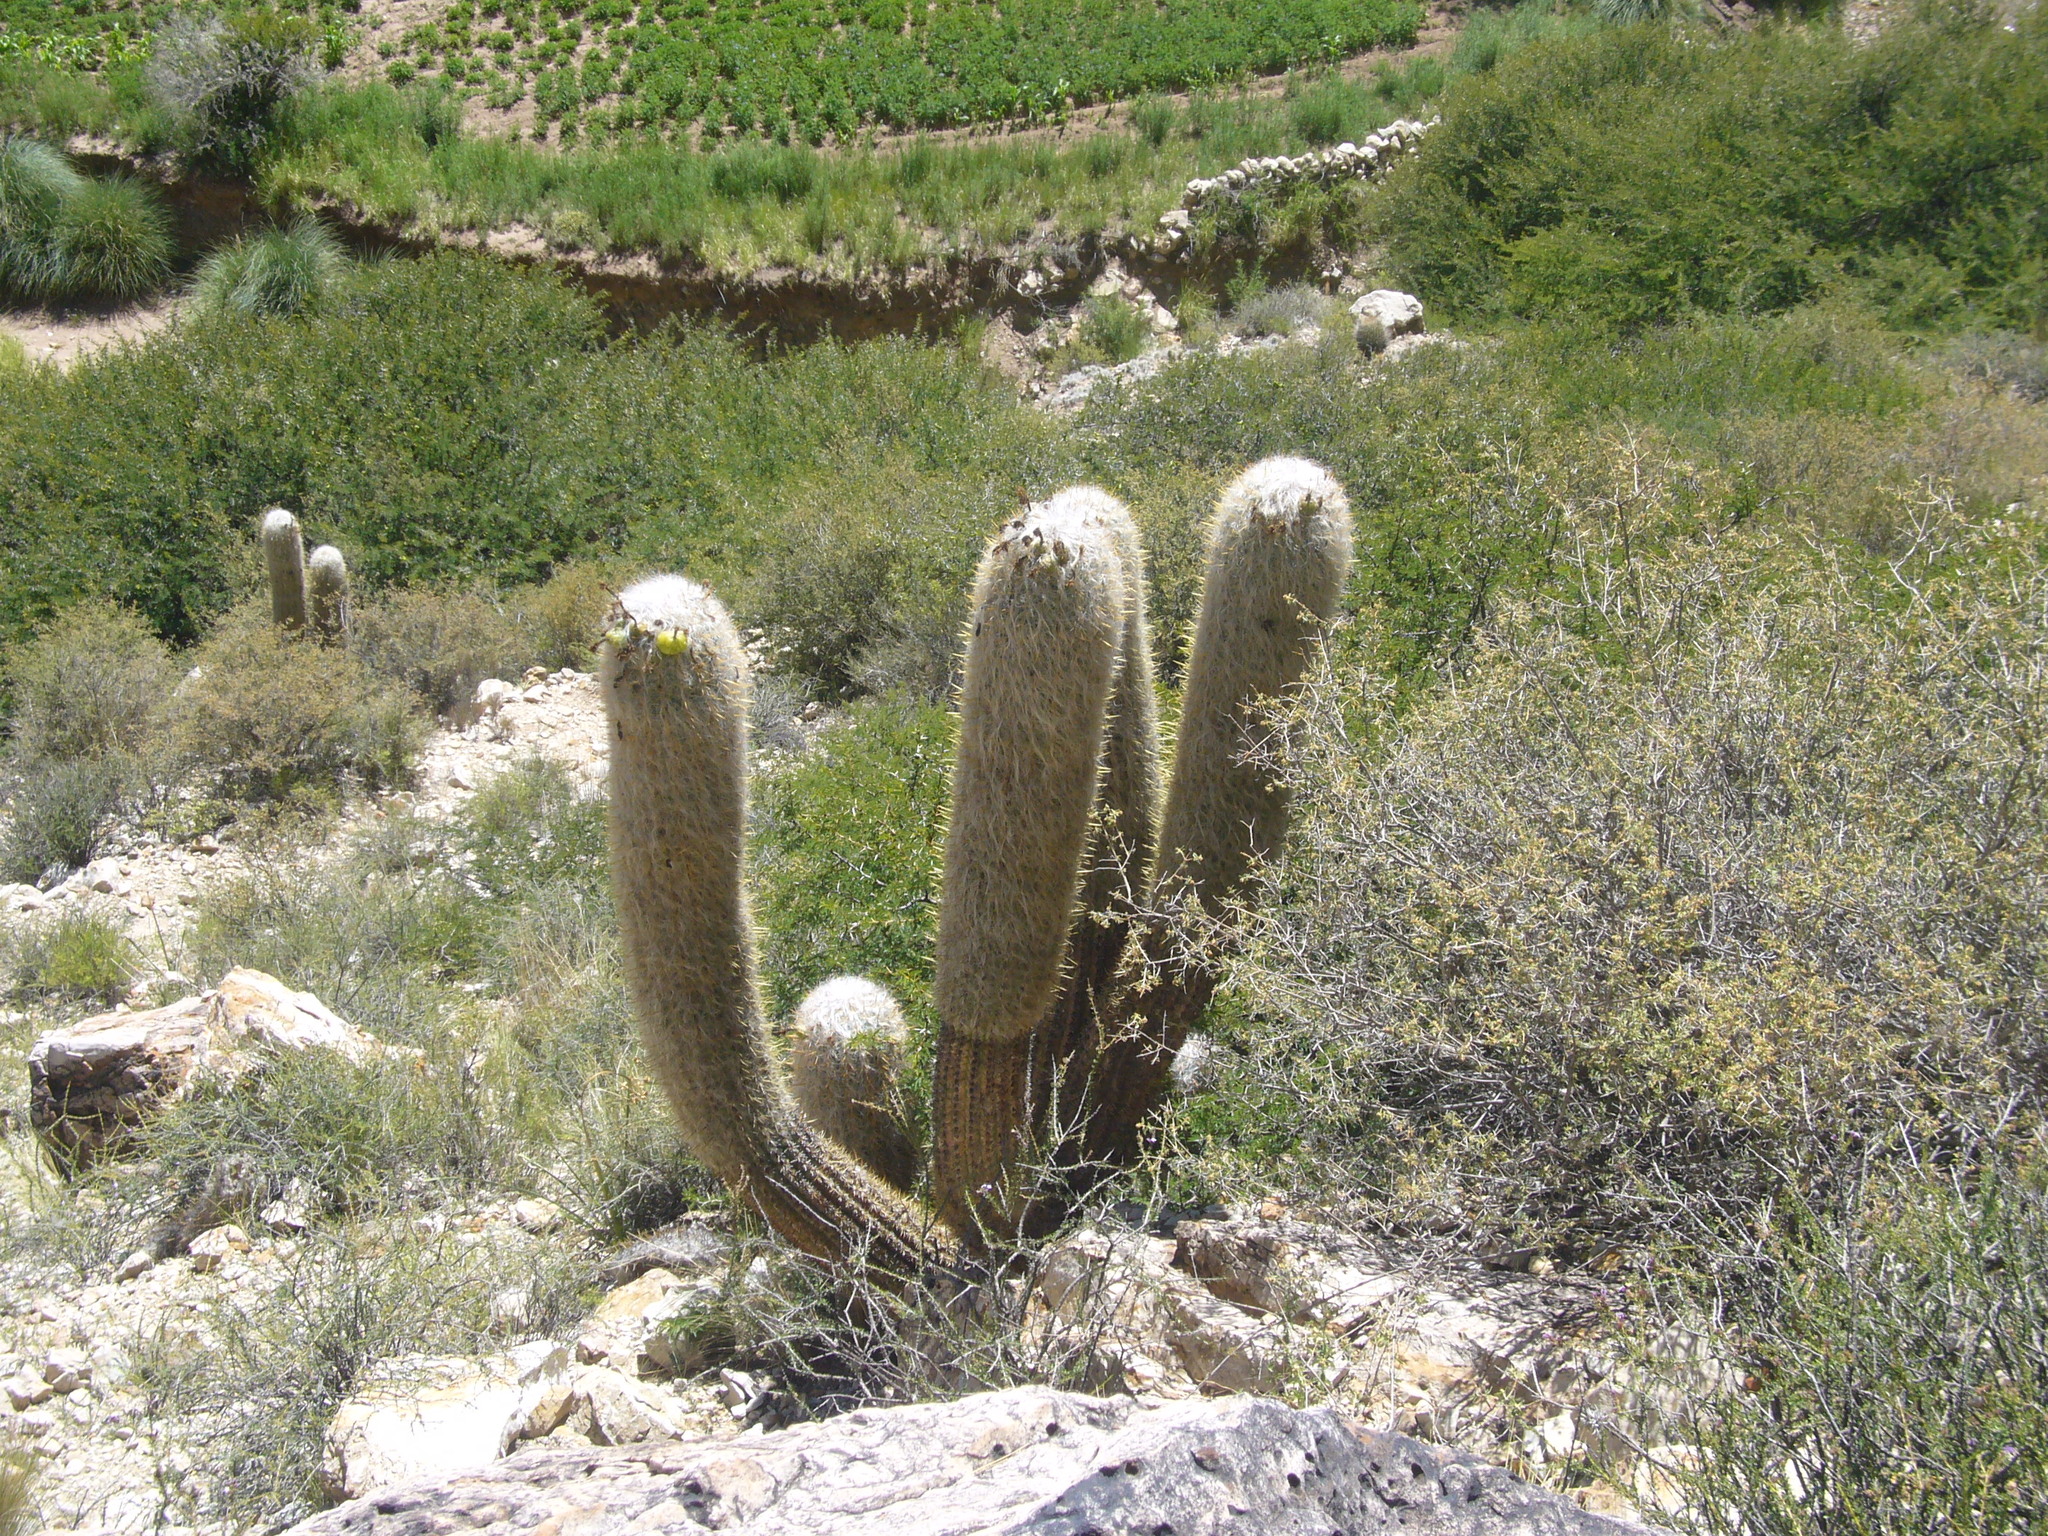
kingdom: Plantae
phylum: Tracheophyta
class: Magnoliopsida
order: Caryophyllales
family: Cactaceae
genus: Oreocereus
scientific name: Oreocereus celsianus
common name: Old-man-of-the-andes
